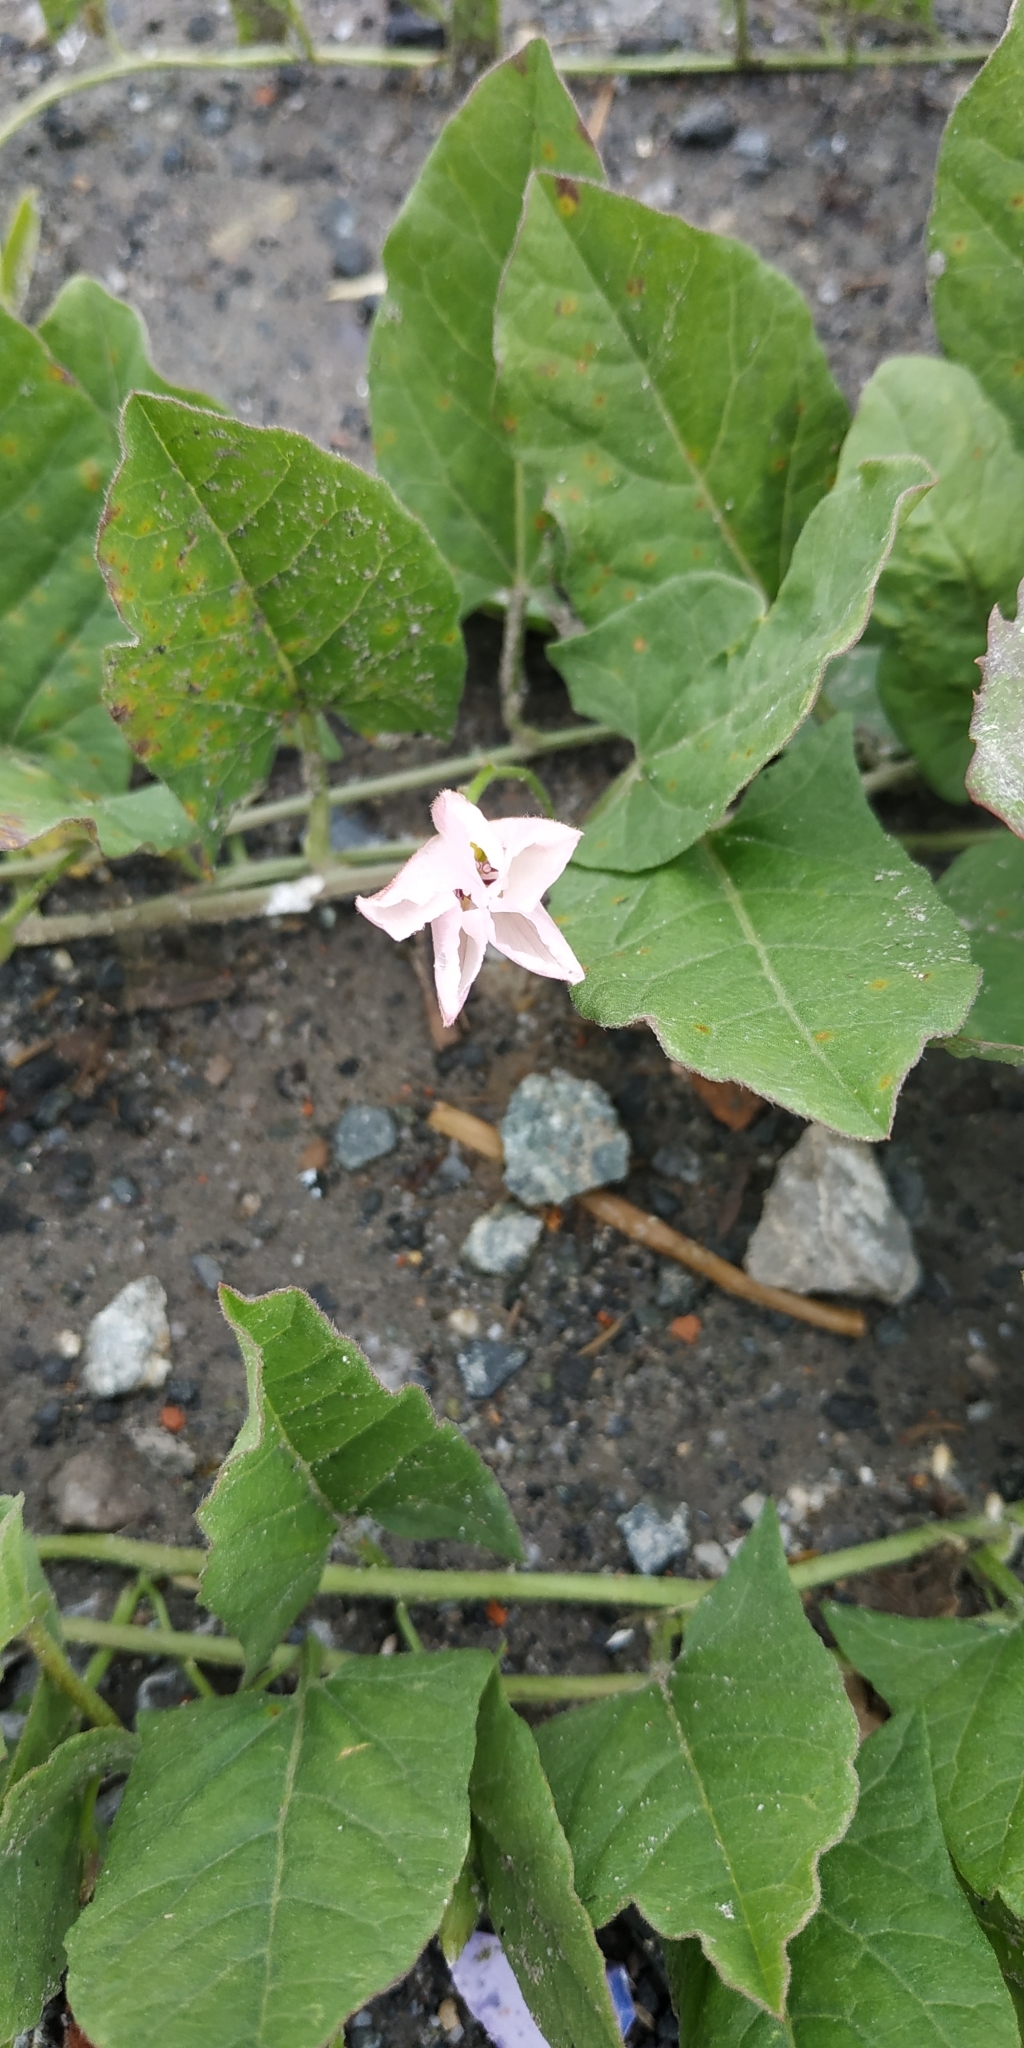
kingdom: Plantae
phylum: Tracheophyta
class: Magnoliopsida
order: Solanales
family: Convolvulaceae
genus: Convolvulus
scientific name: Convolvulus arvensis
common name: Field bindweed
